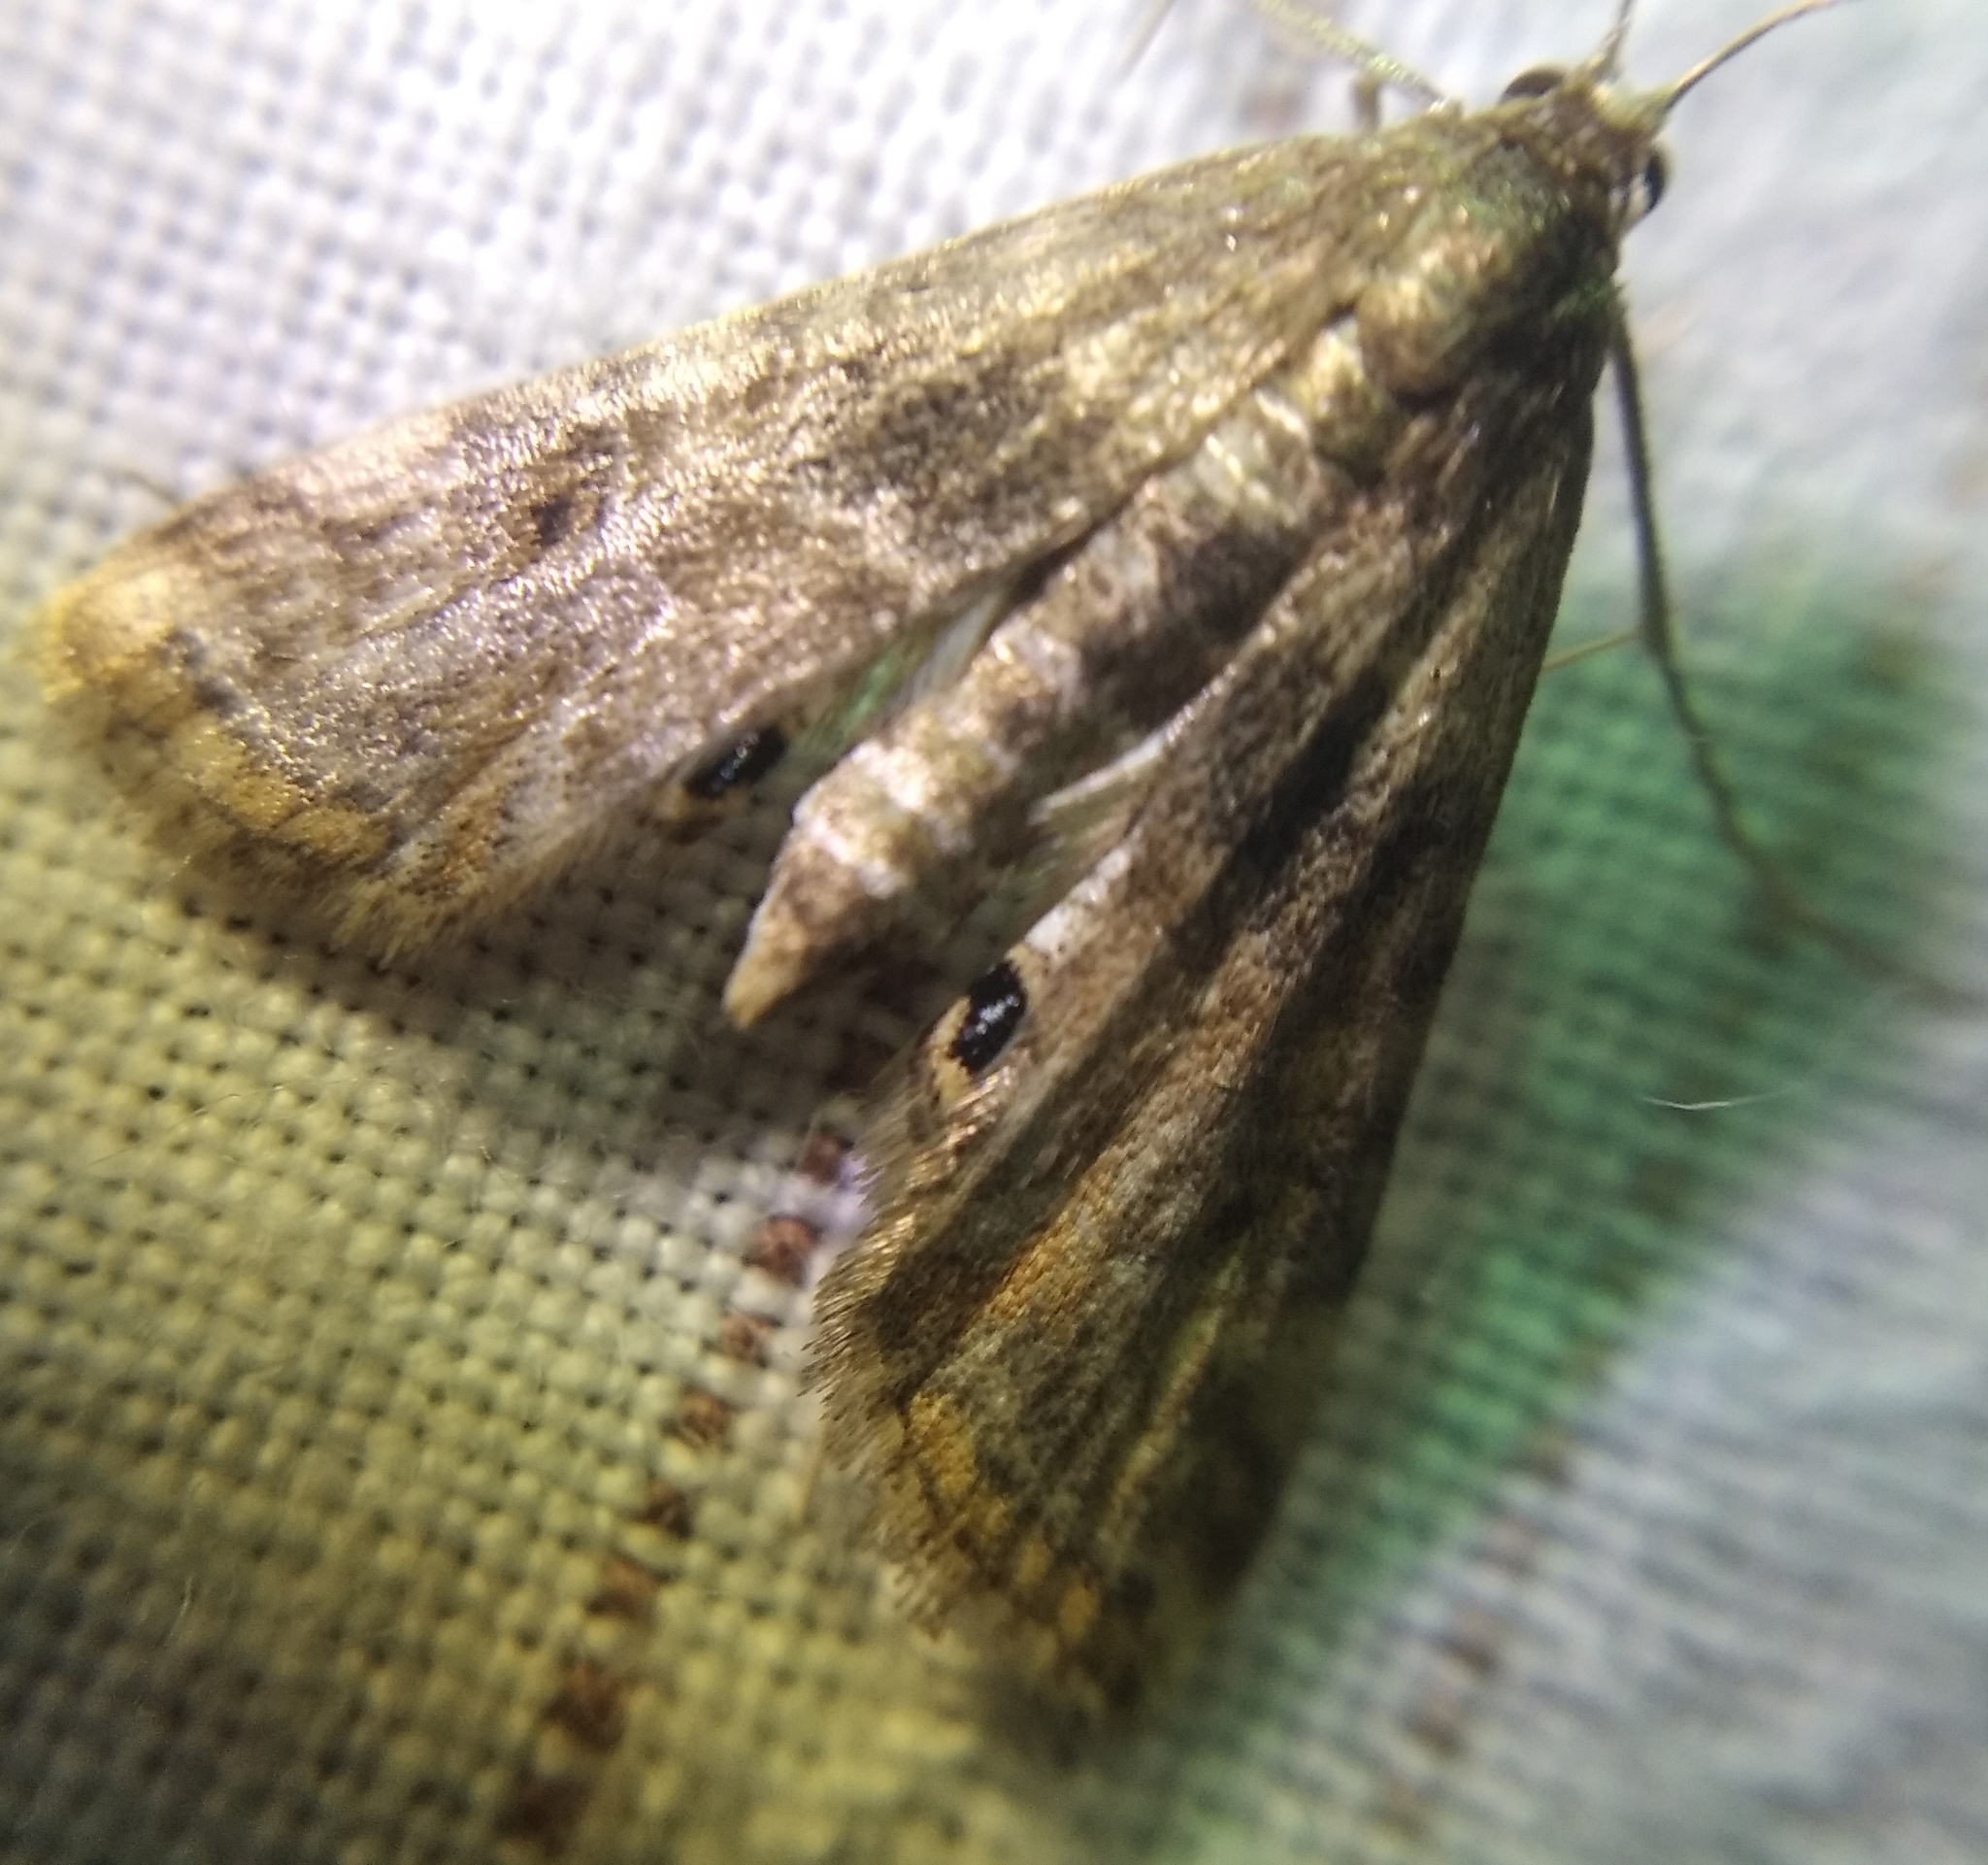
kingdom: Animalia
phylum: Arthropoda
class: Insecta
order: Lepidoptera
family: Crambidae
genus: Cataclysta
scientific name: Cataclysta lemnata
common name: Small china-mark
